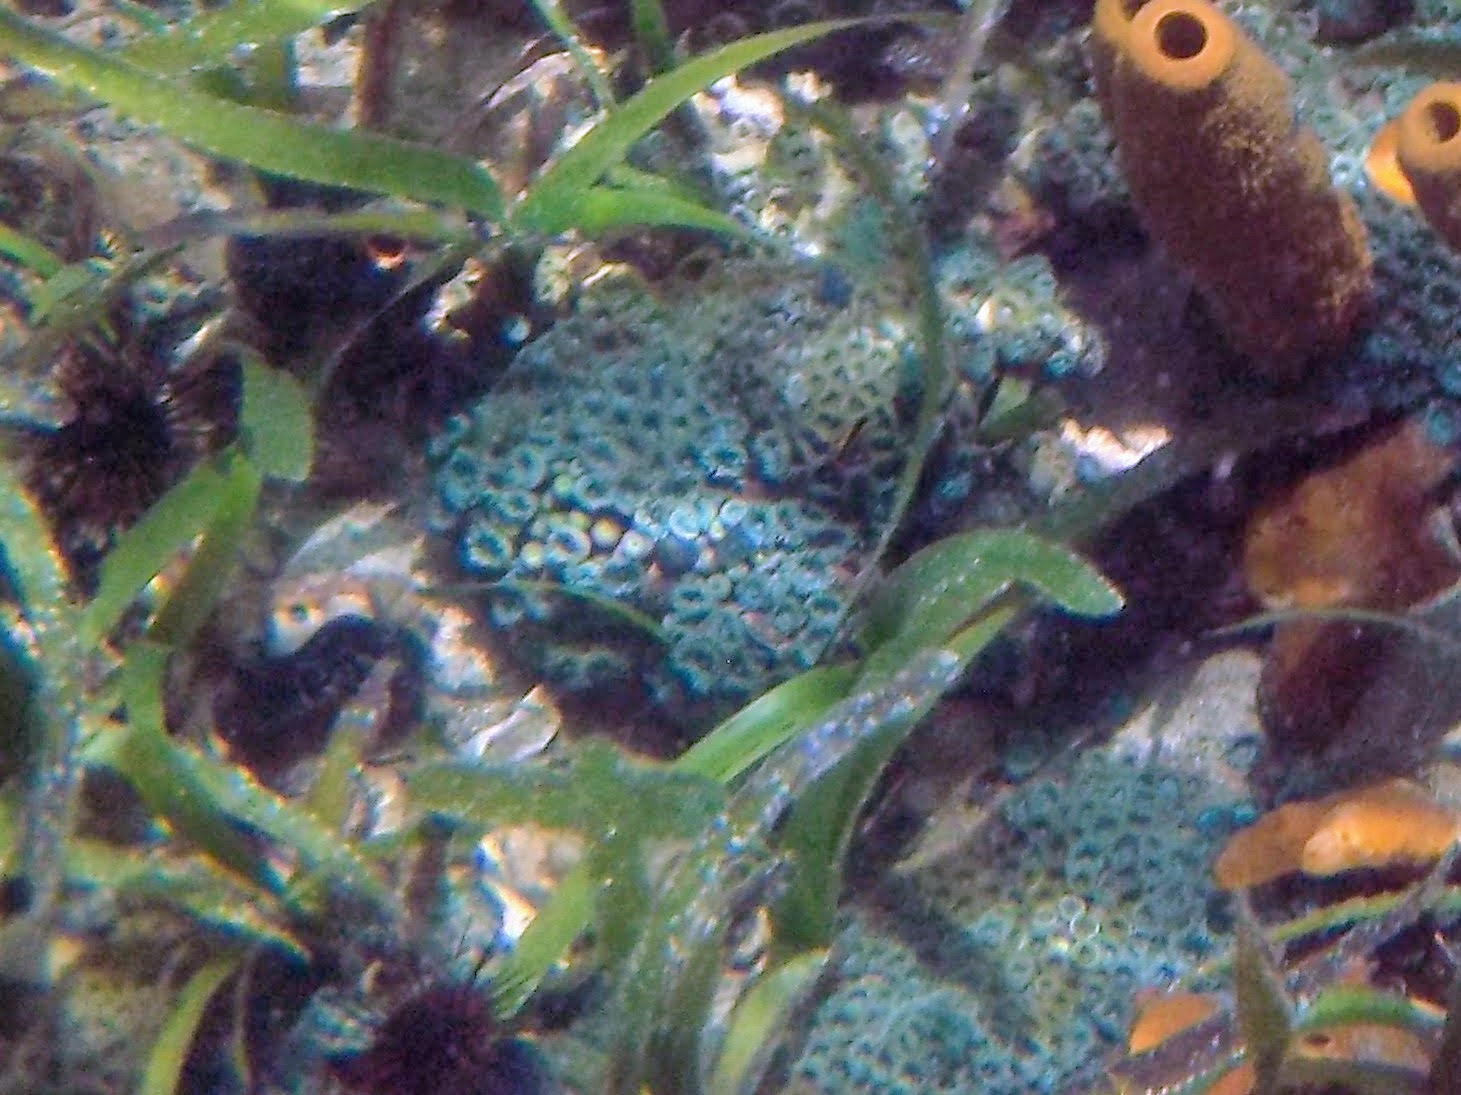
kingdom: Animalia
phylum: Cnidaria
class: Anthozoa
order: Zoantharia
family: Zoanthidae
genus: Zoanthus
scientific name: Zoanthus pulchellus
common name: Mat zoanthid
